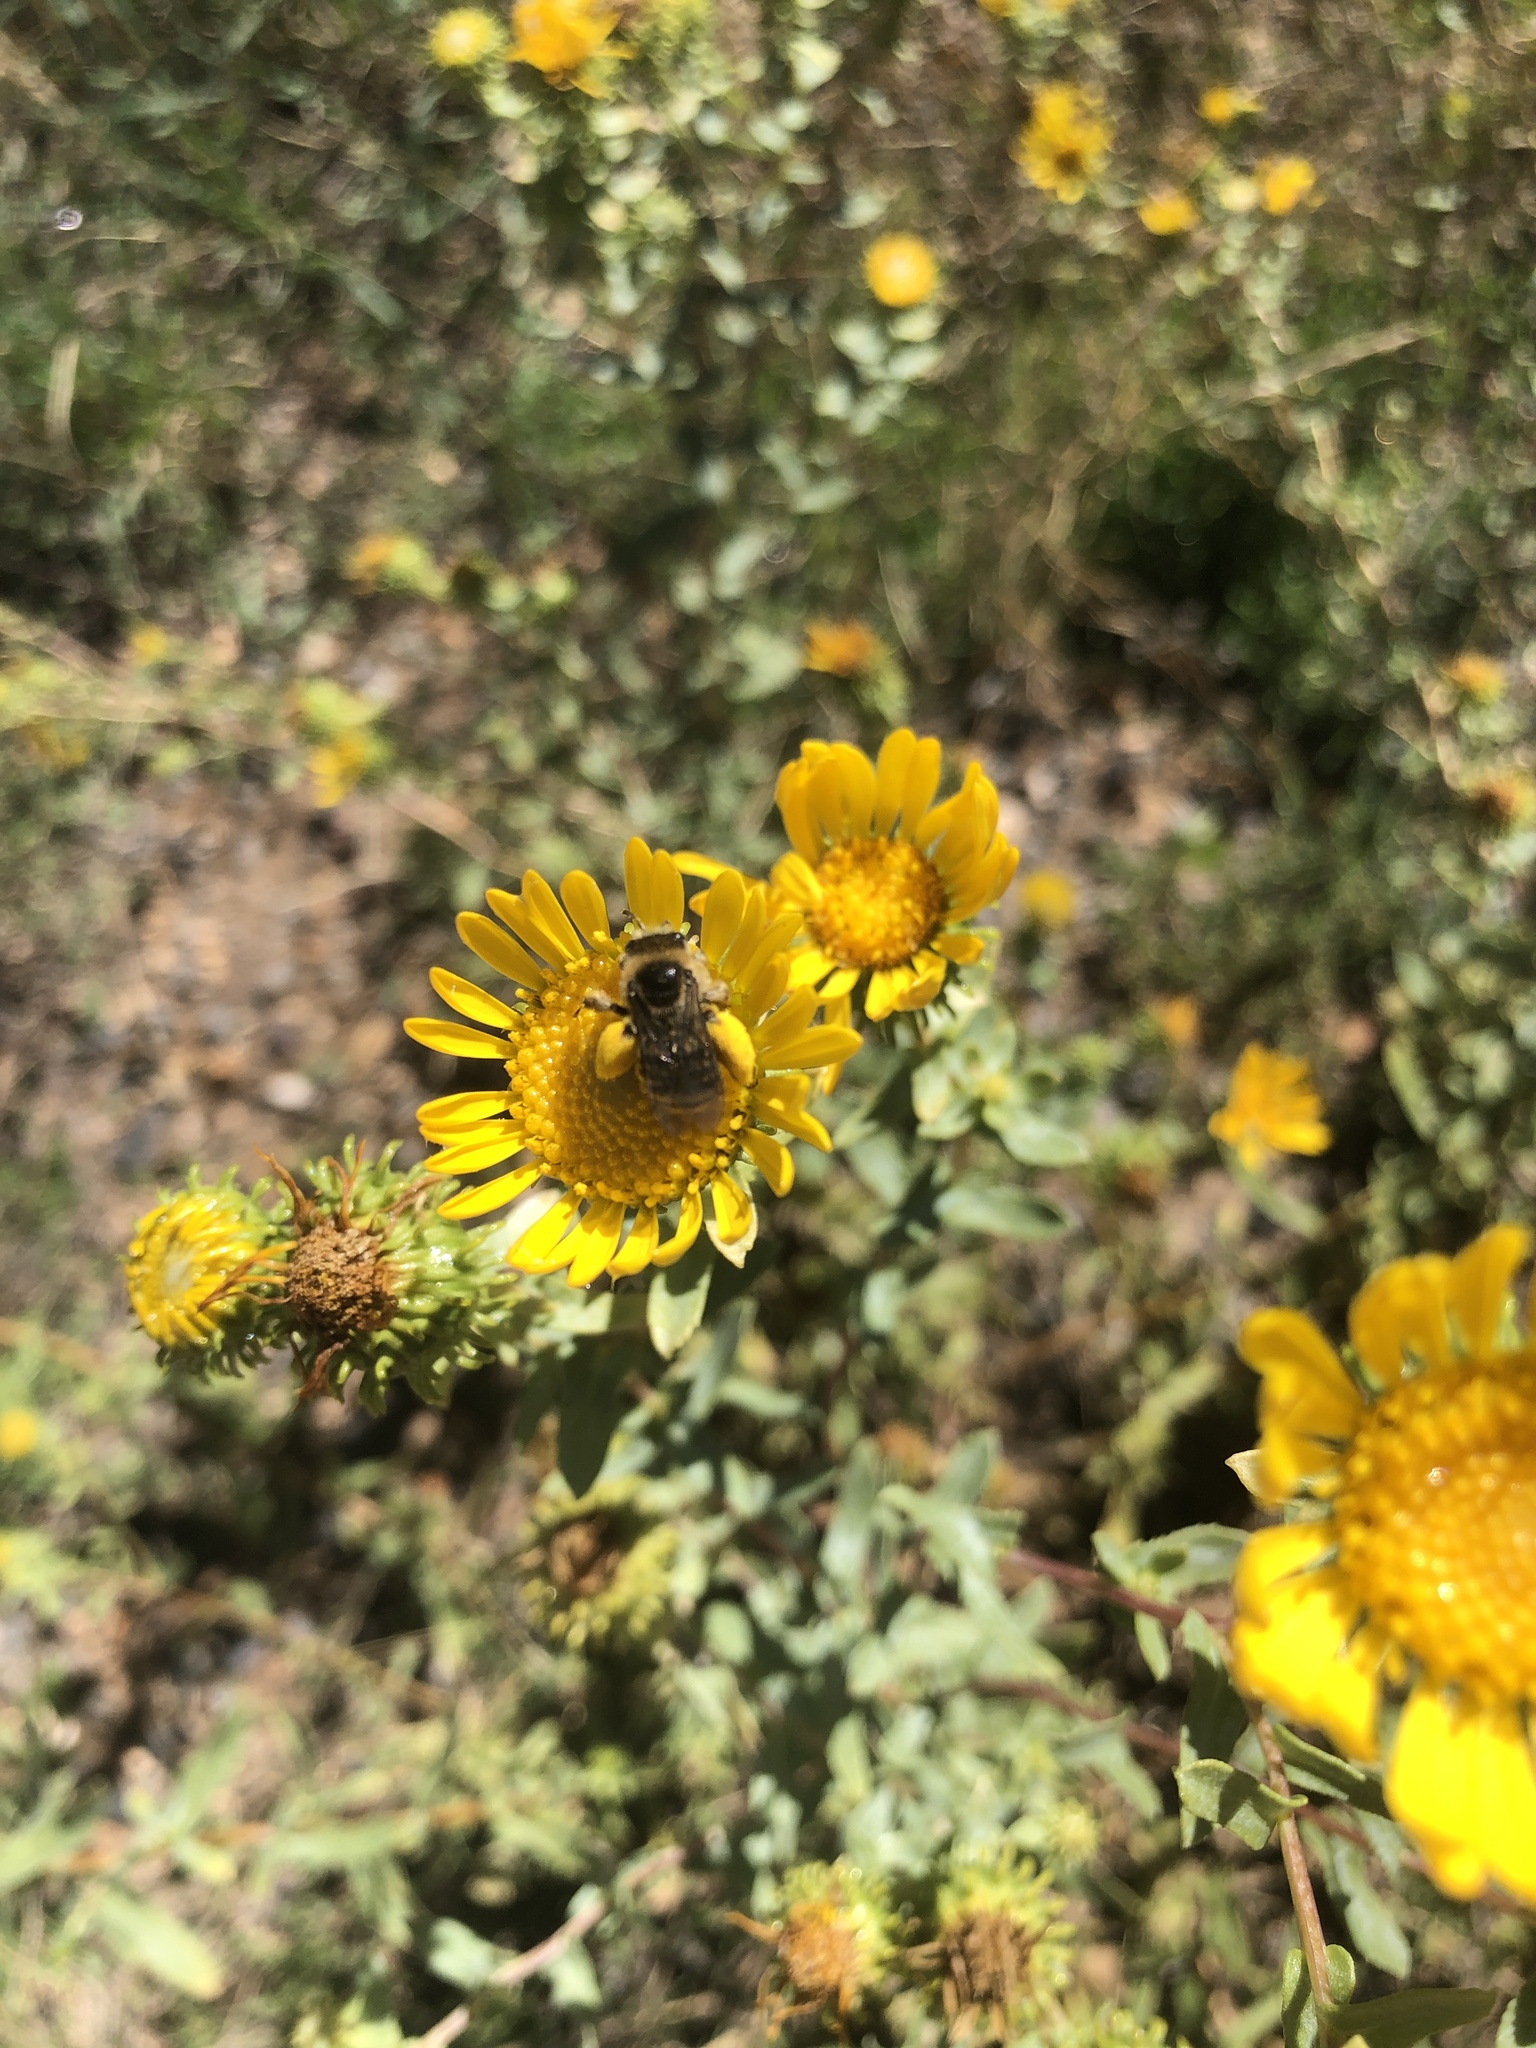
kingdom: Plantae
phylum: Tracheophyta
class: Magnoliopsida
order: Asterales
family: Asteraceae
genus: Grindelia
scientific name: Grindelia squarrosa
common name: Curly-cup gumweed
